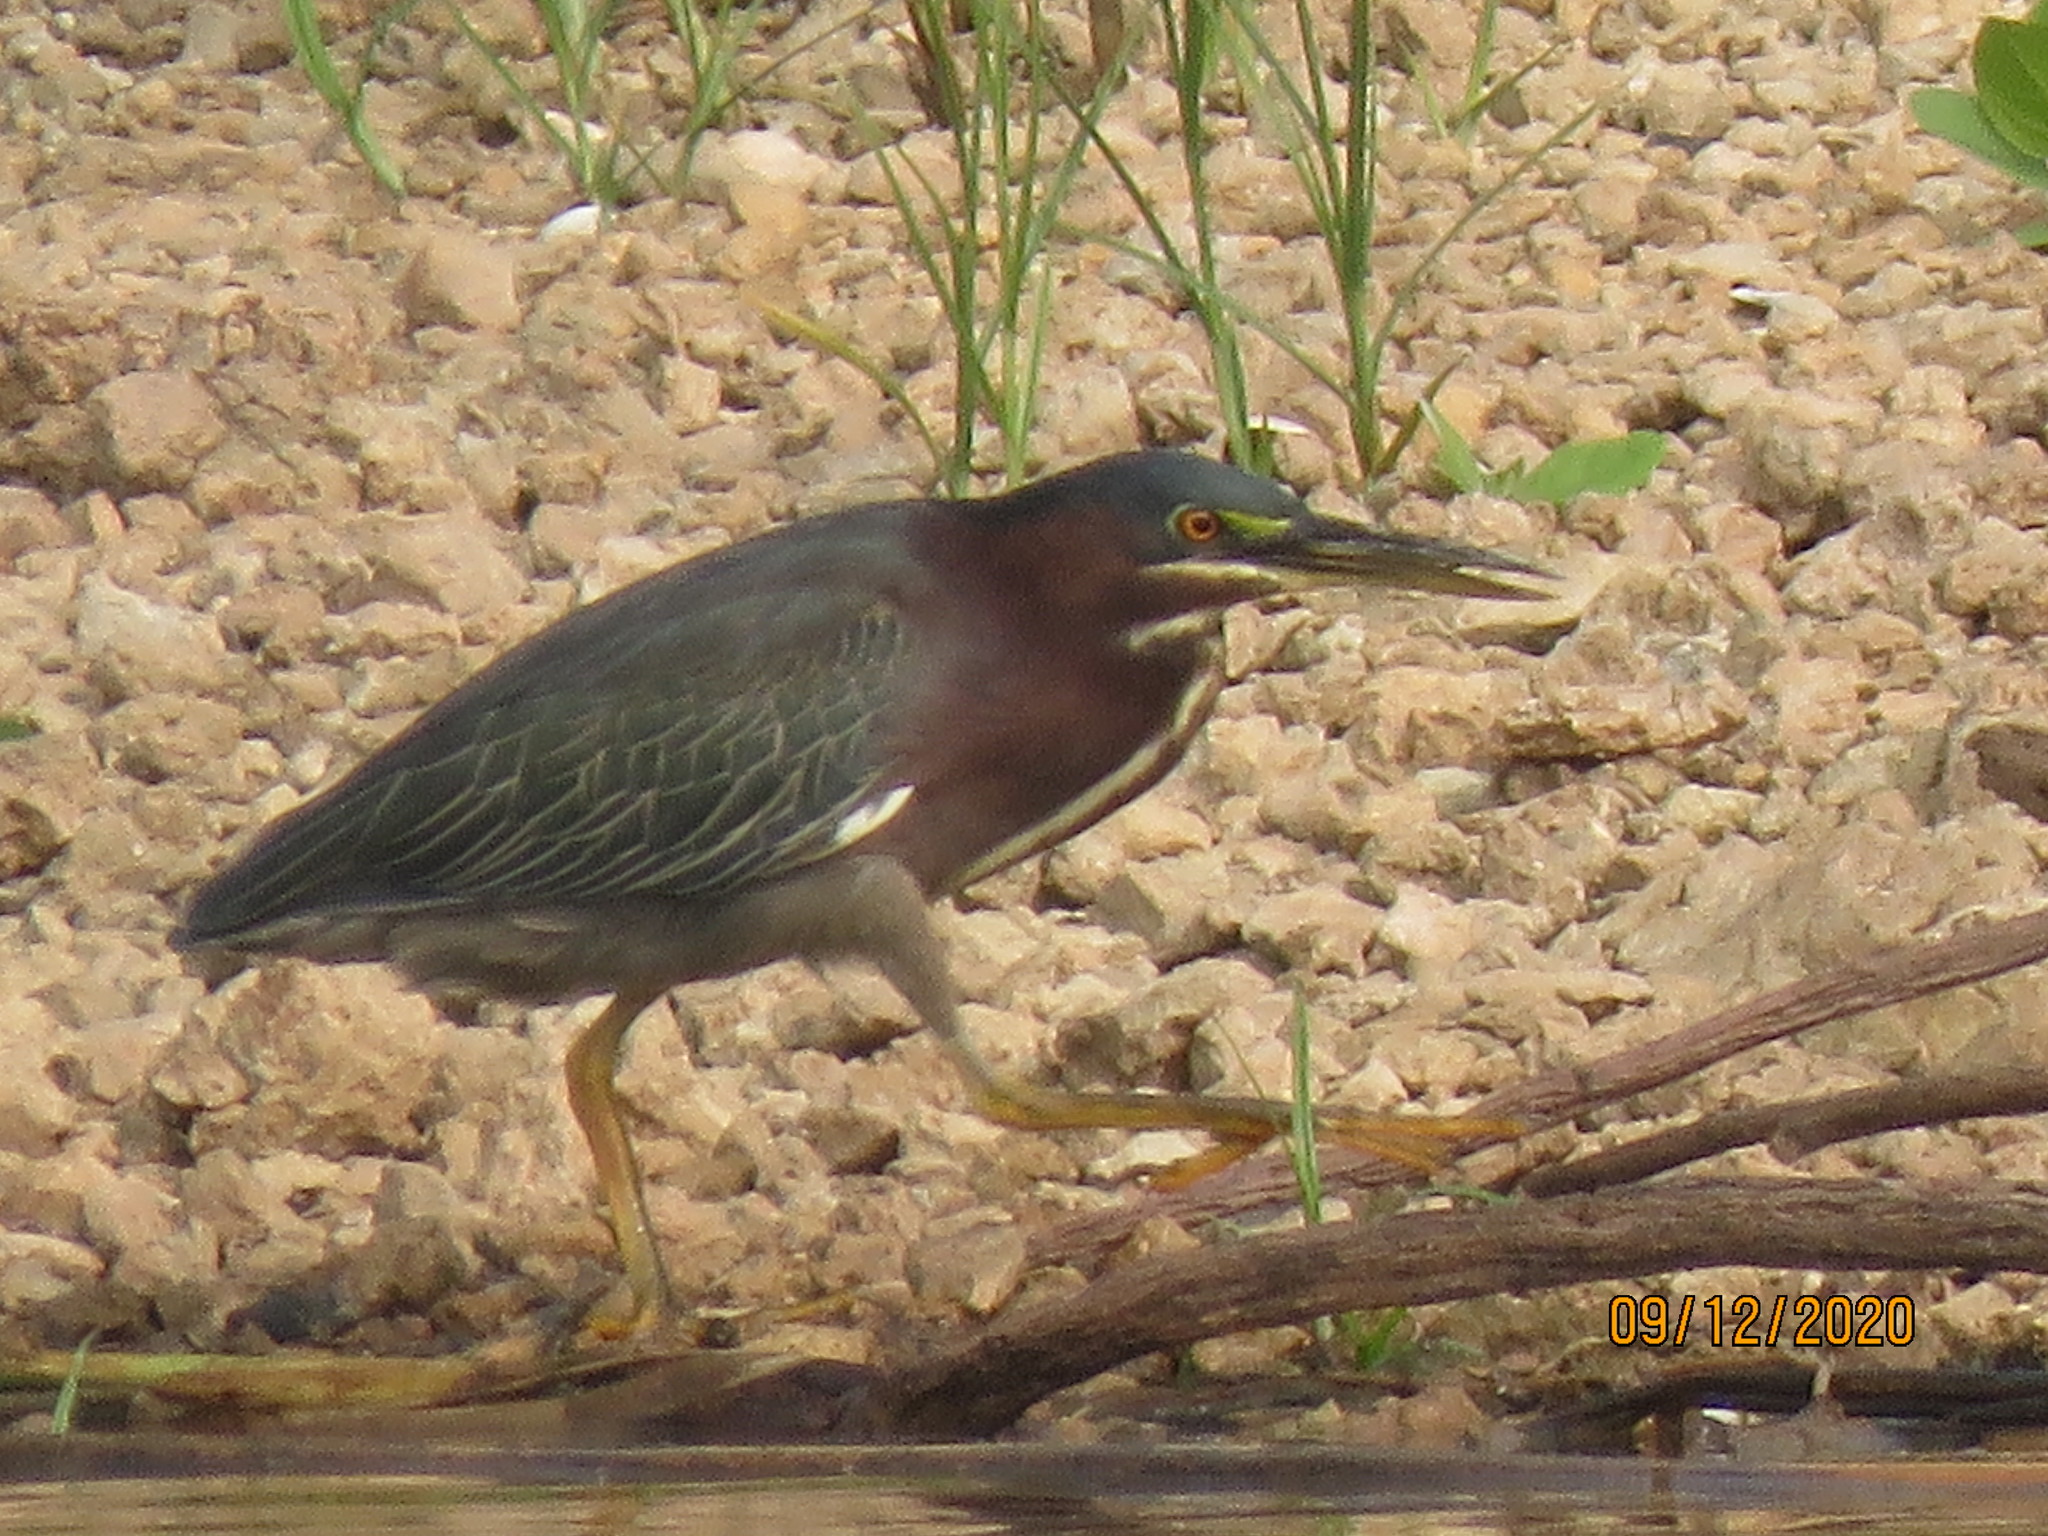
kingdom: Animalia
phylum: Chordata
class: Aves
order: Pelecaniformes
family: Ardeidae
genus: Butorides
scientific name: Butorides virescens
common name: Green heron
